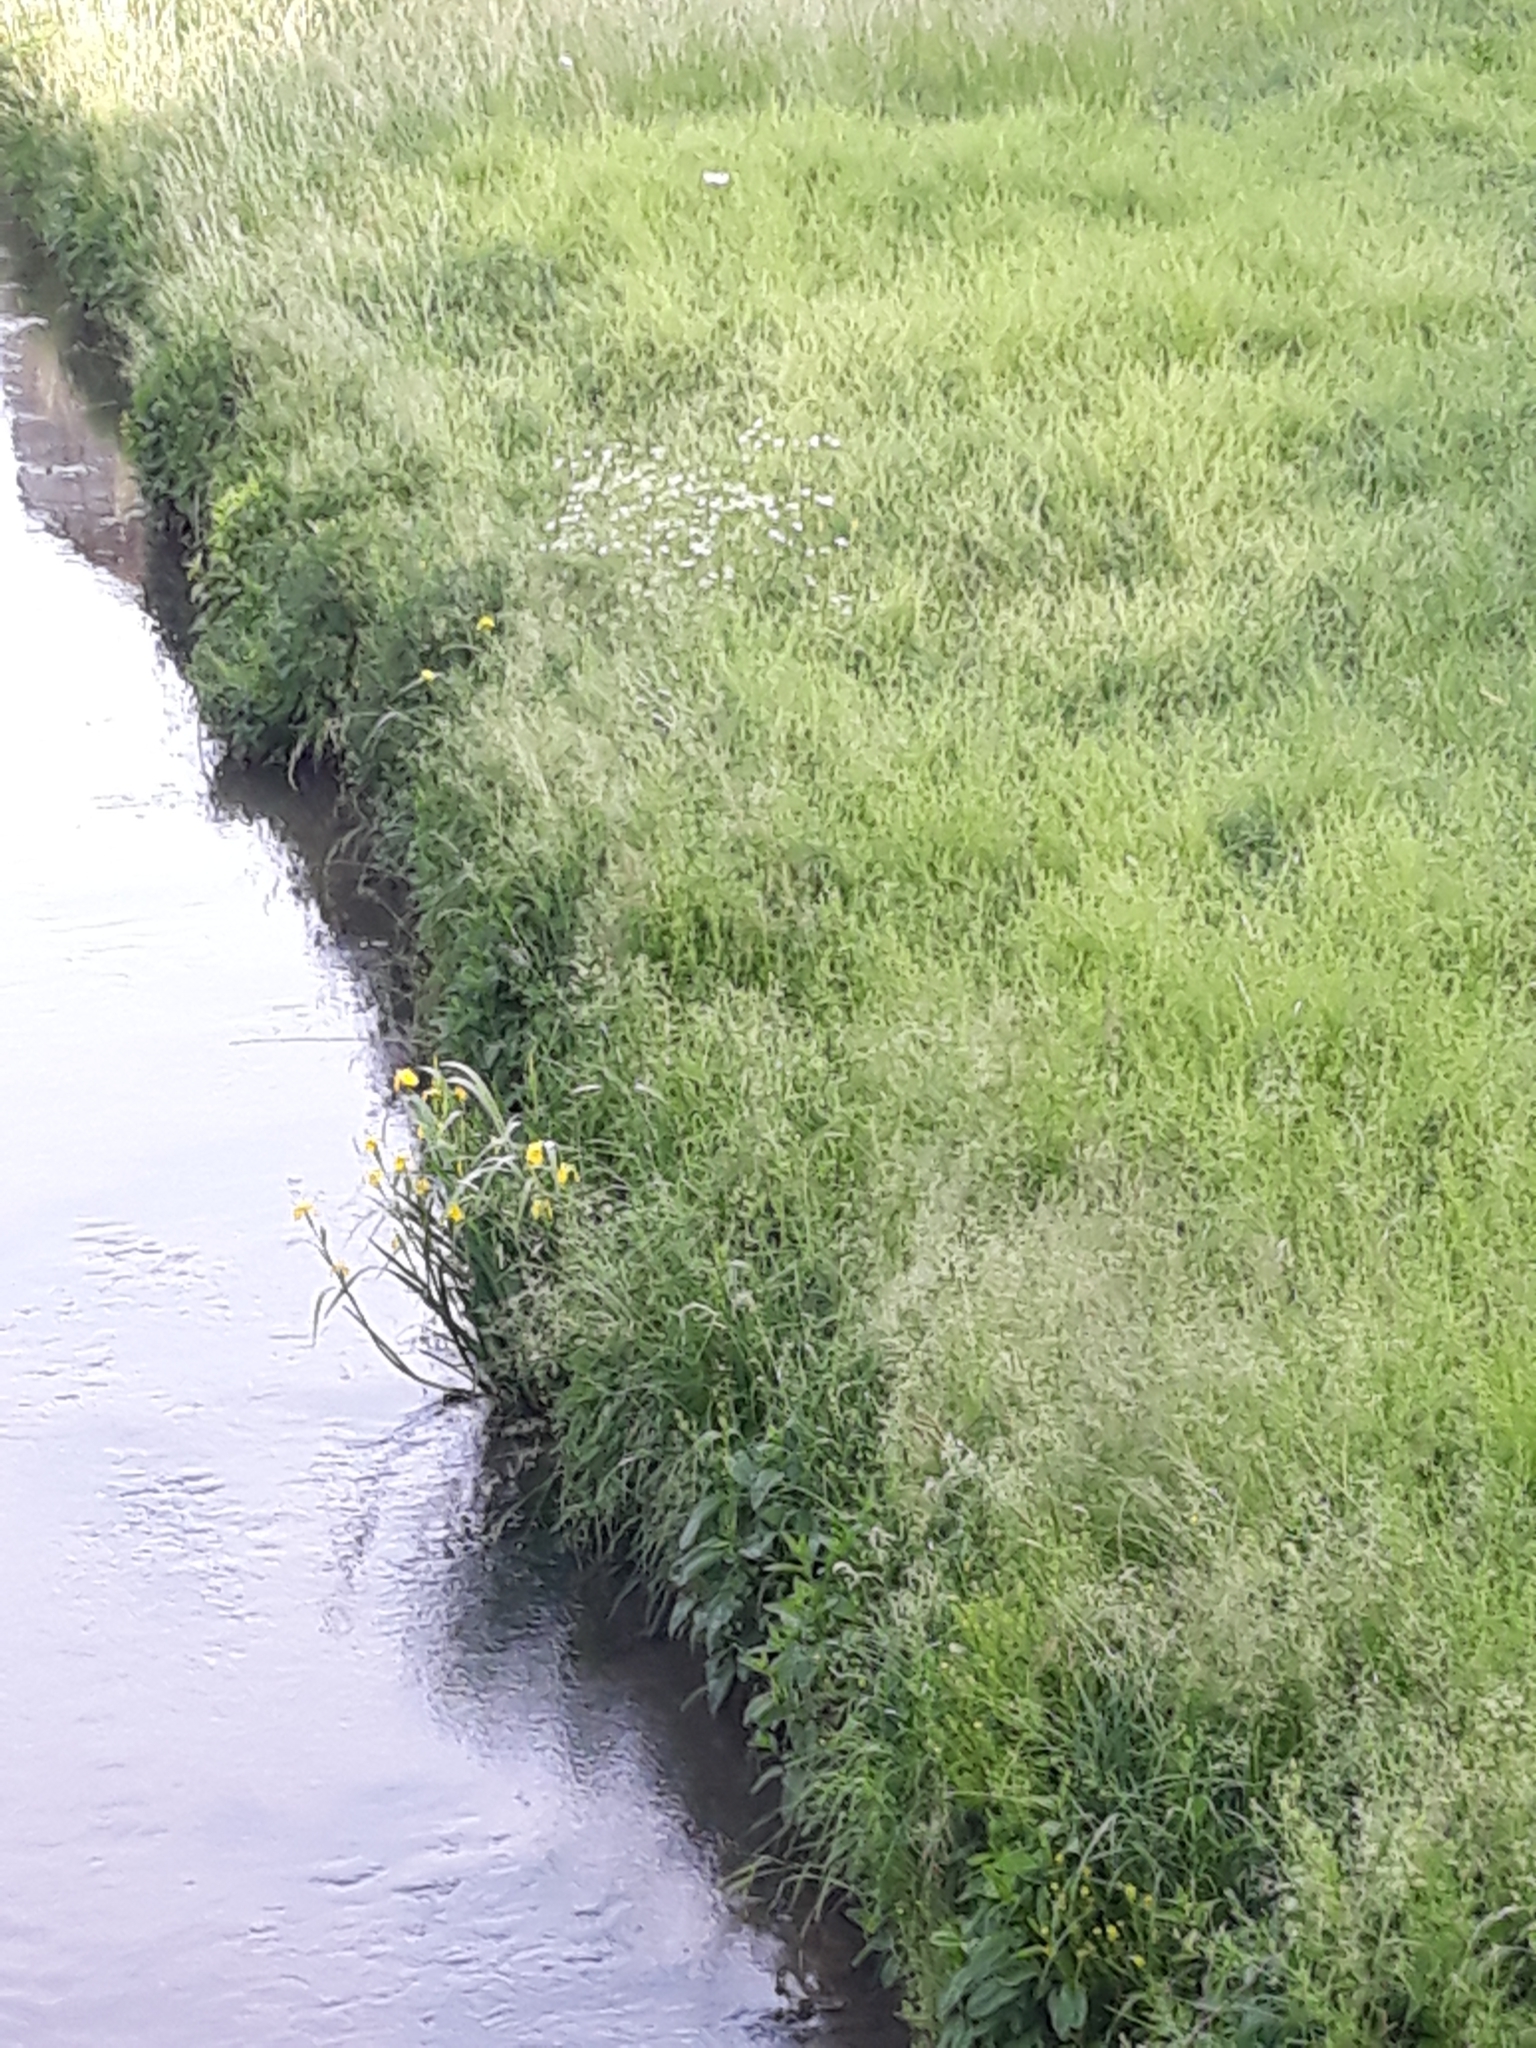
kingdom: Plantae
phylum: Tracheophyta
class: Liliopsida
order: Asparagales
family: Iridaceae
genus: Iris
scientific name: Iris pseudacorus
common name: Yellow flag
